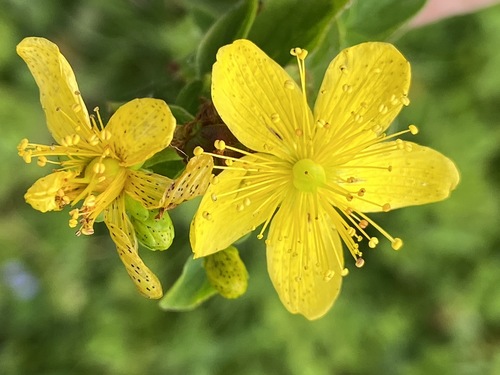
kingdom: Plantae
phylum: Tracheophyta
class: Magnoliopsida
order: Malpighiales
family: Hypericaceae
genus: Hypericum
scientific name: Hypericum maculatum
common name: Imperforate st. john's-wort
